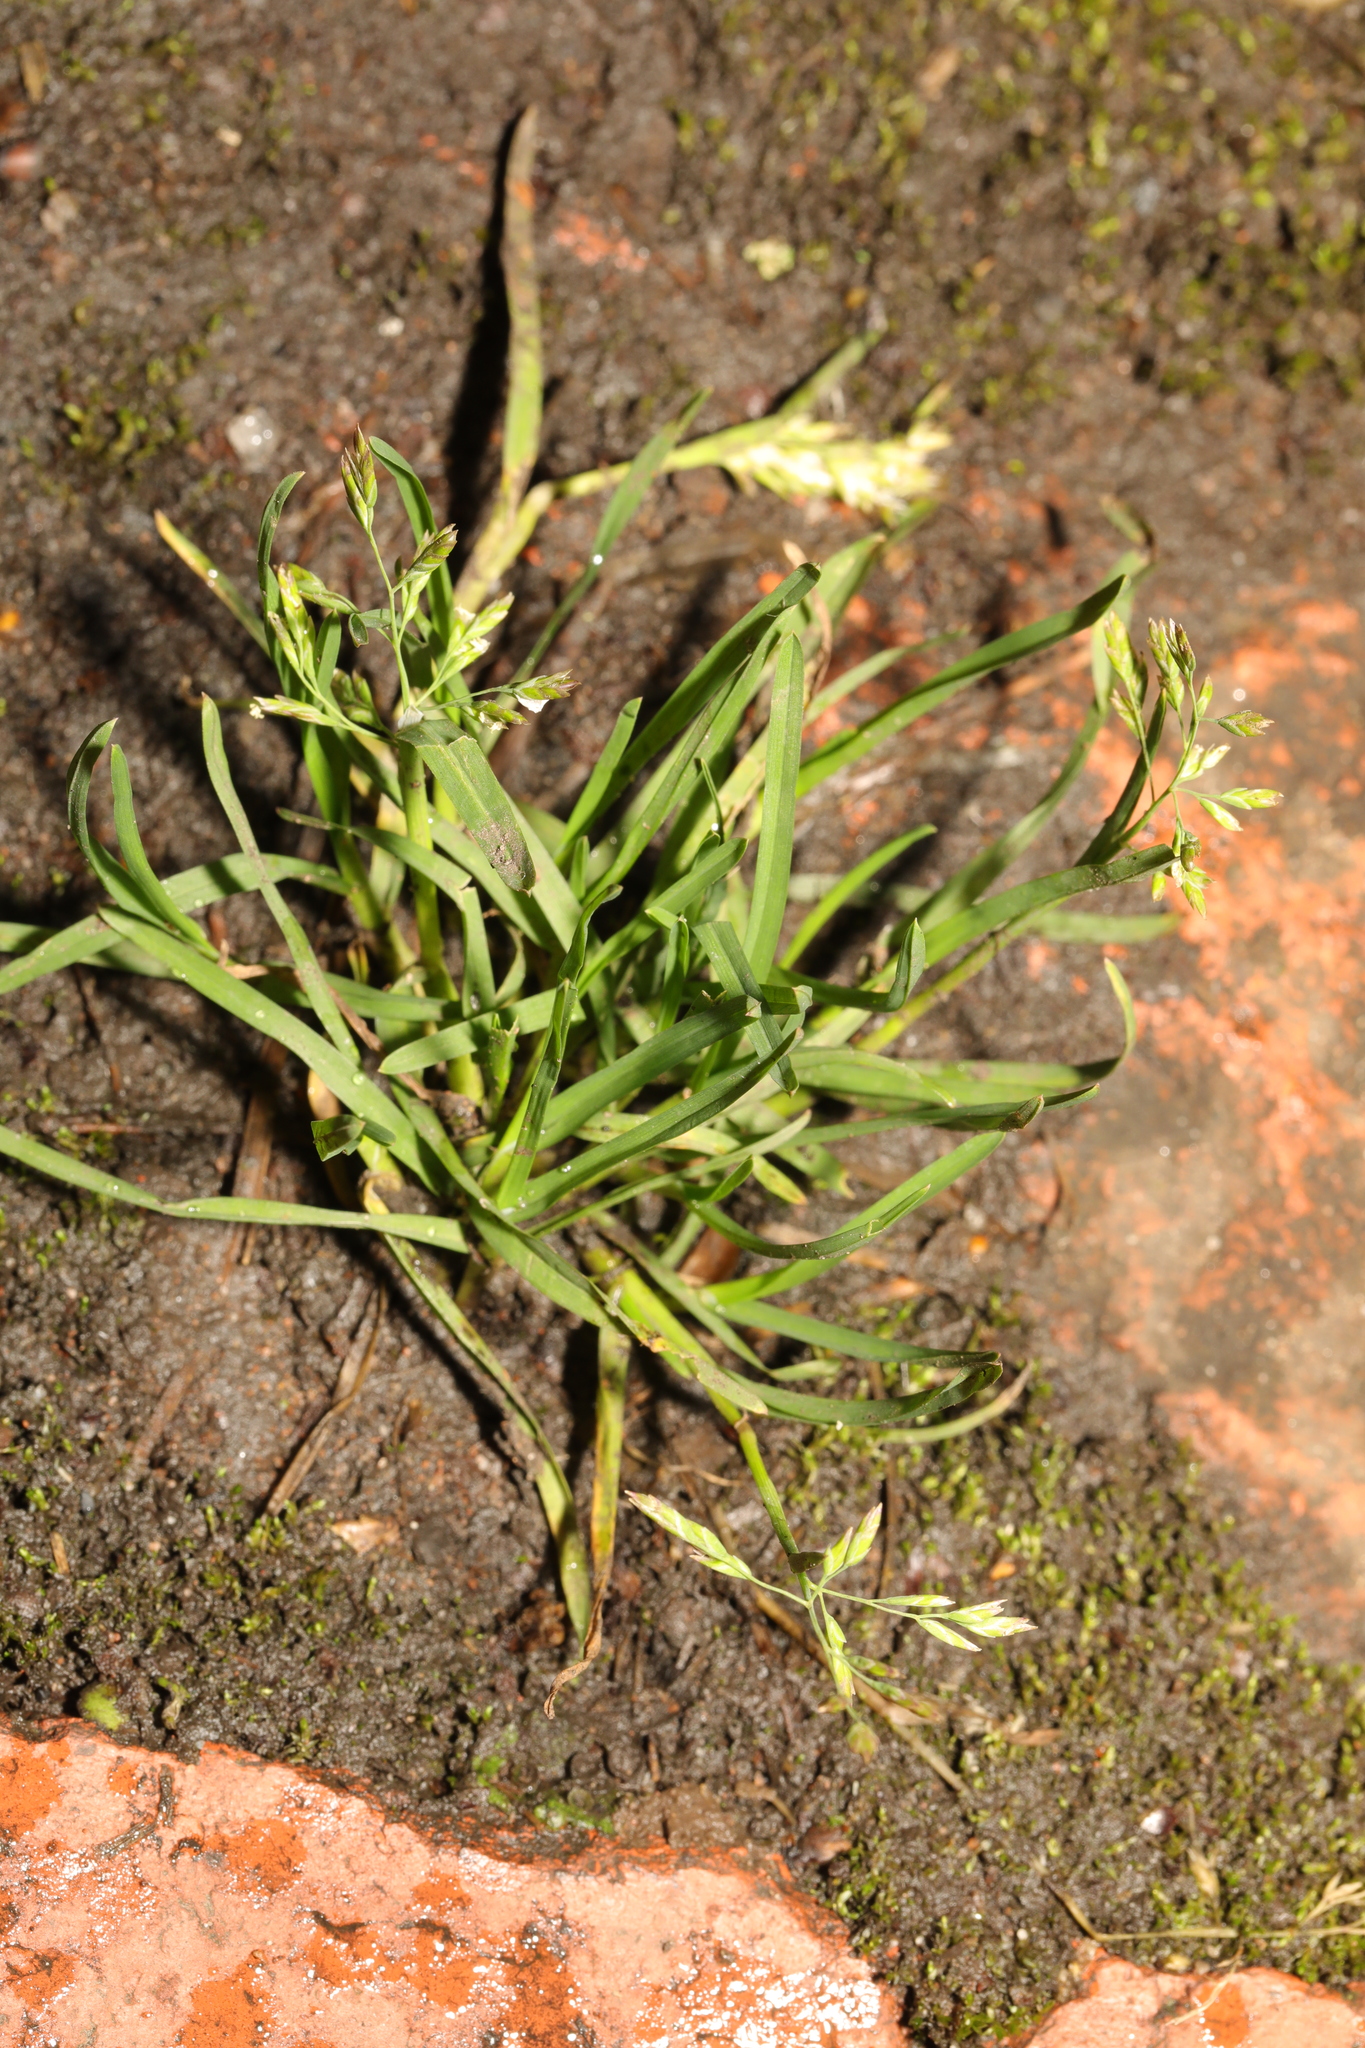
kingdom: Plantae
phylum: Tracheophyta
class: Liliopsida
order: Poales
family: Poaceae
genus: Poa
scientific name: Poa annua
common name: Annual bluegrass
